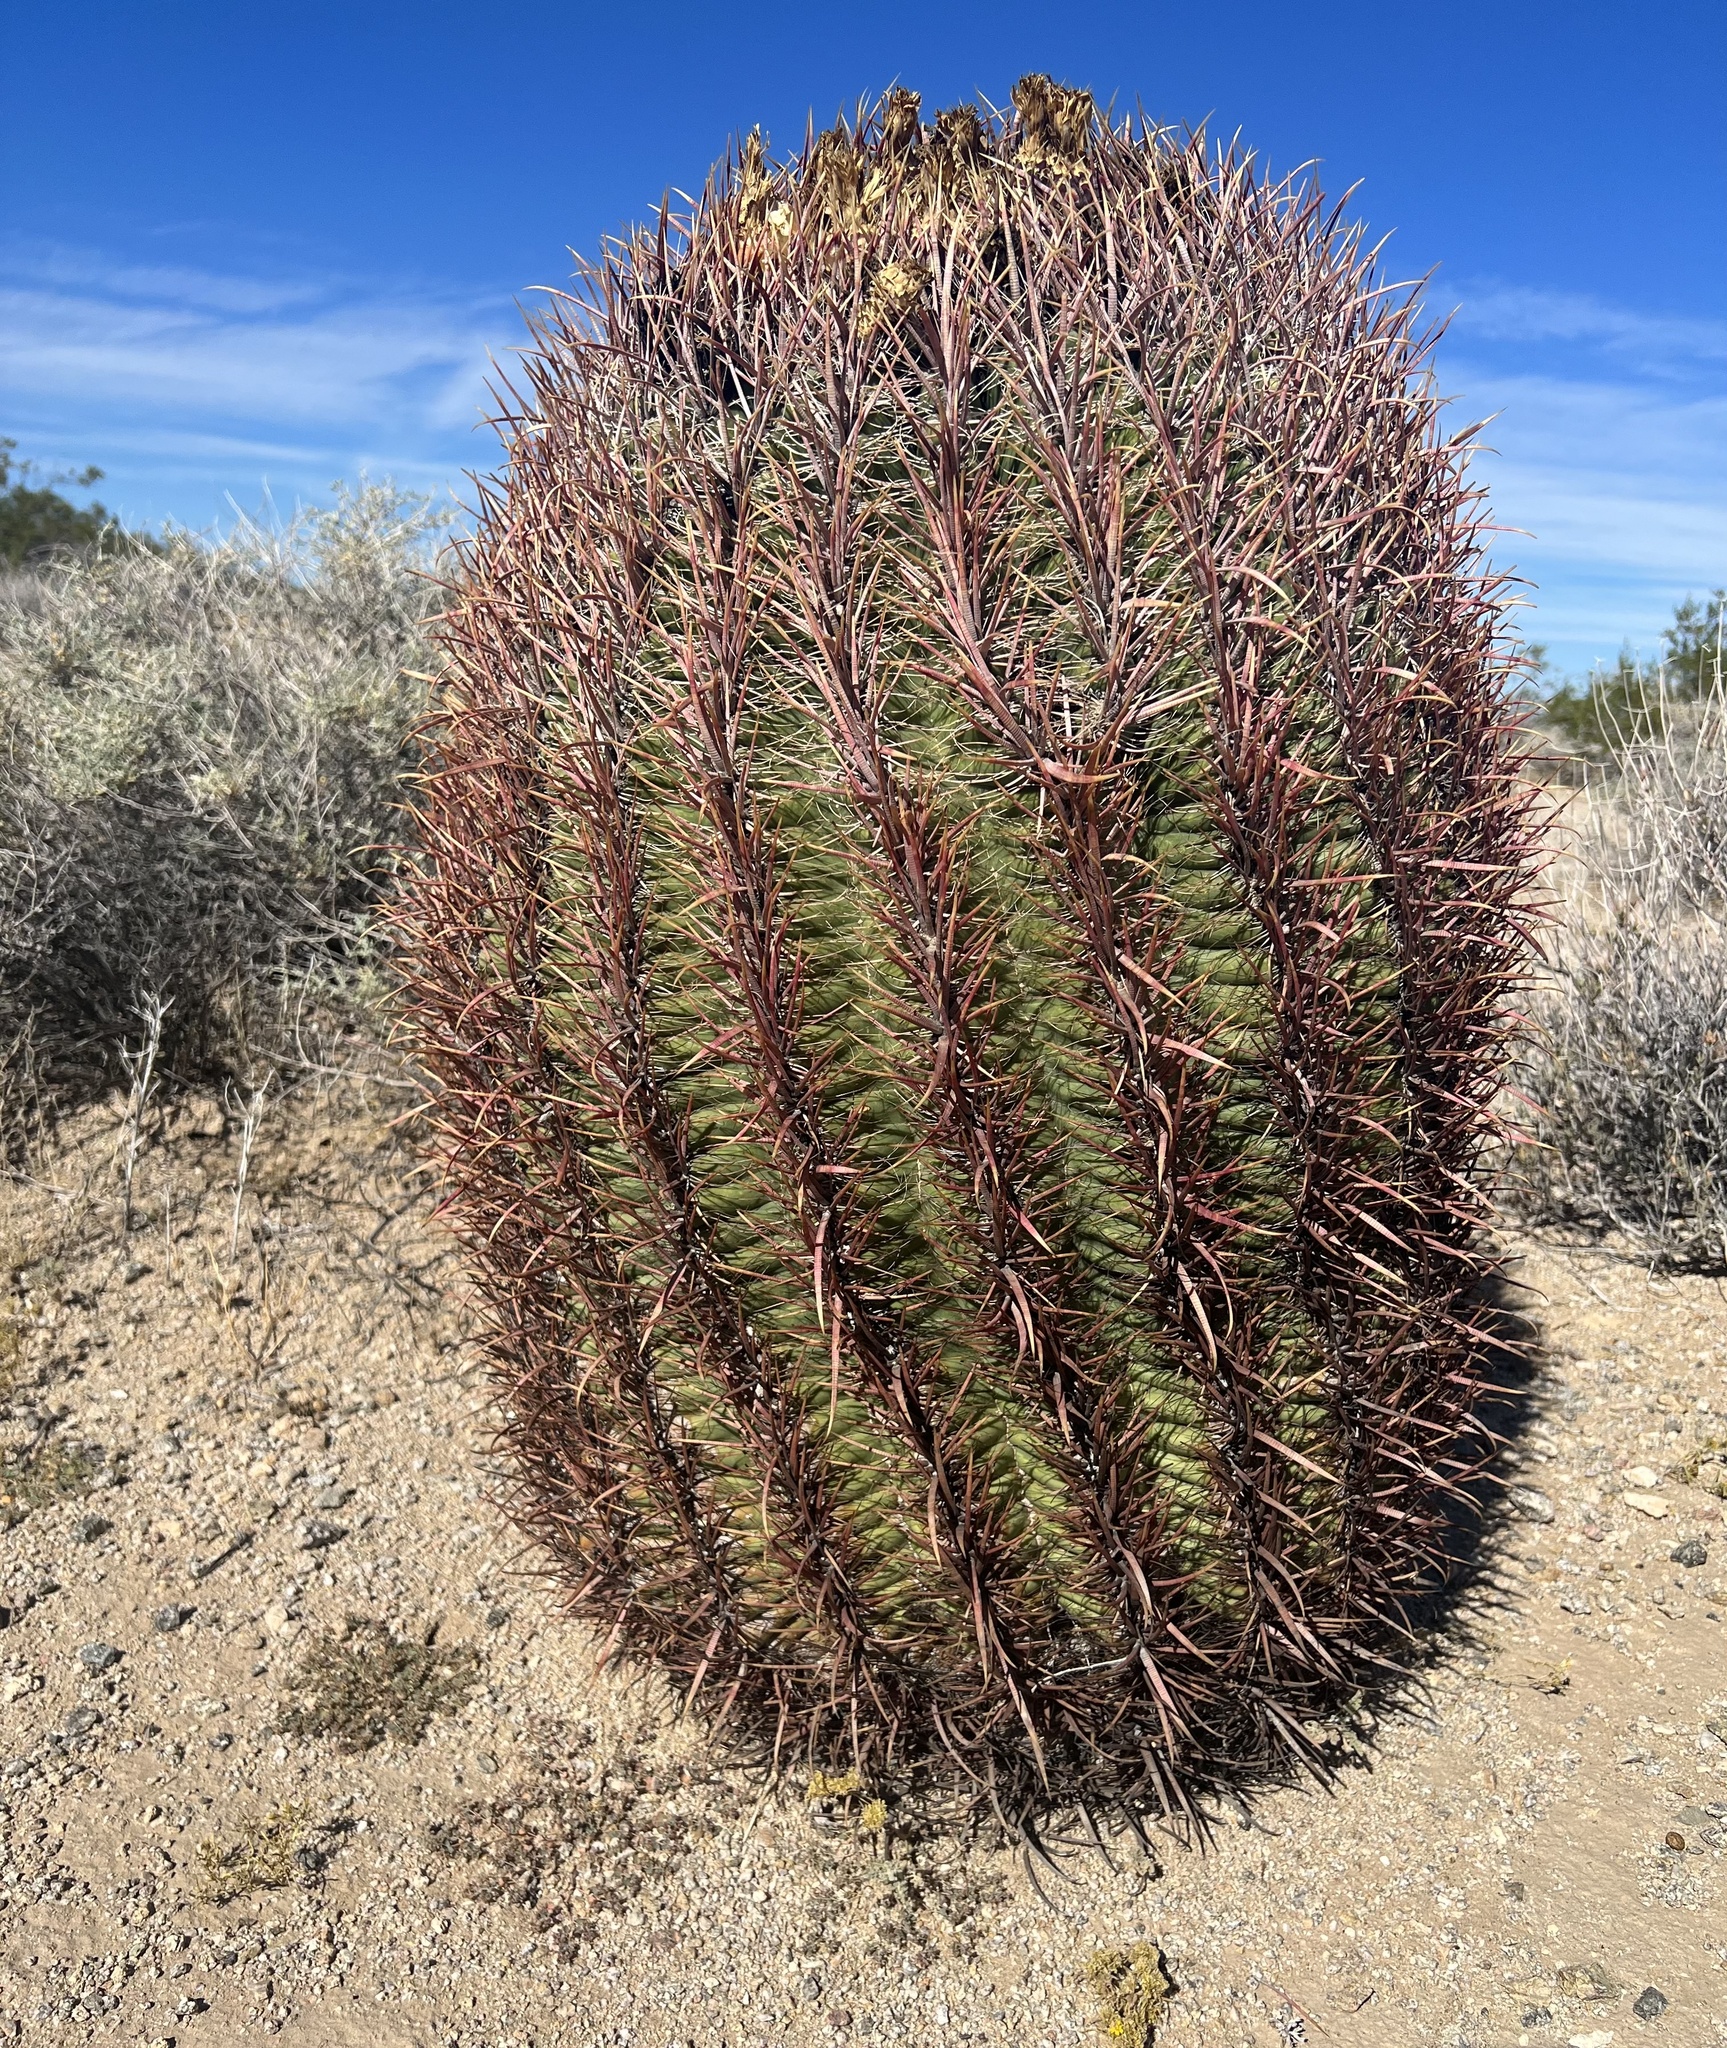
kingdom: Plantae
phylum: Tracheophyta
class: Magnoliopsida
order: Caryophyllales
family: Cactaceae
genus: Ferocactus
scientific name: Ferocactus cylindraceus
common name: California barrel cactus
